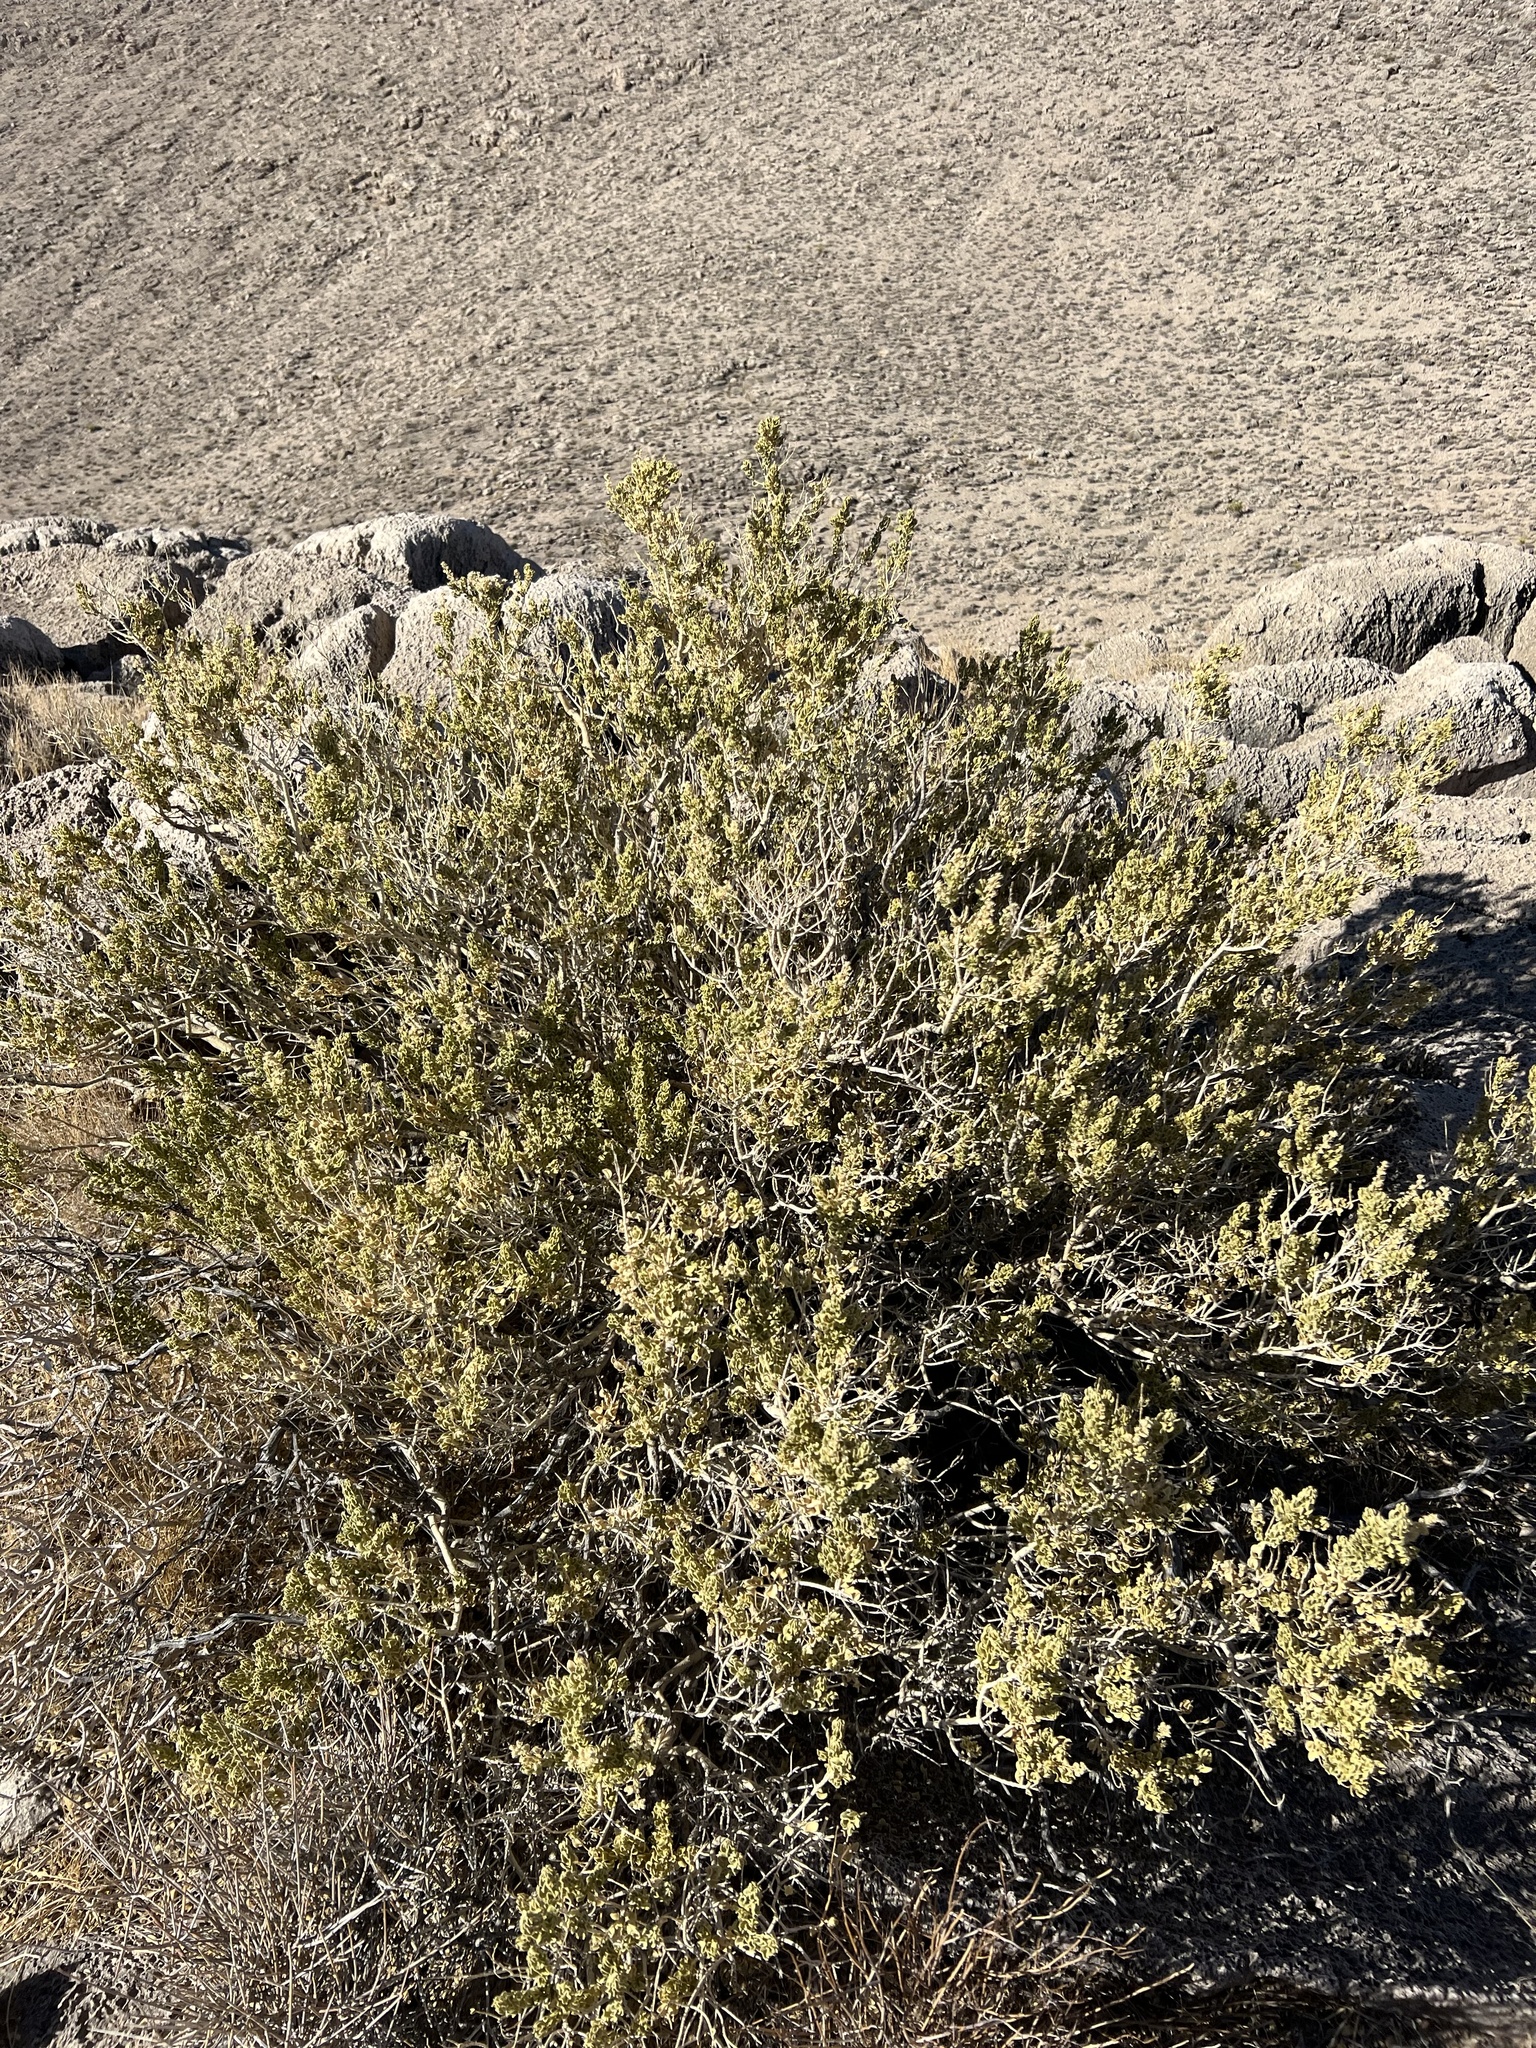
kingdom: Plantae
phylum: Tracheophyta
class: Magnoliopsida
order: Celastrales
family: Celastraceae
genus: Mortonia
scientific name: Mortonia utahensis
